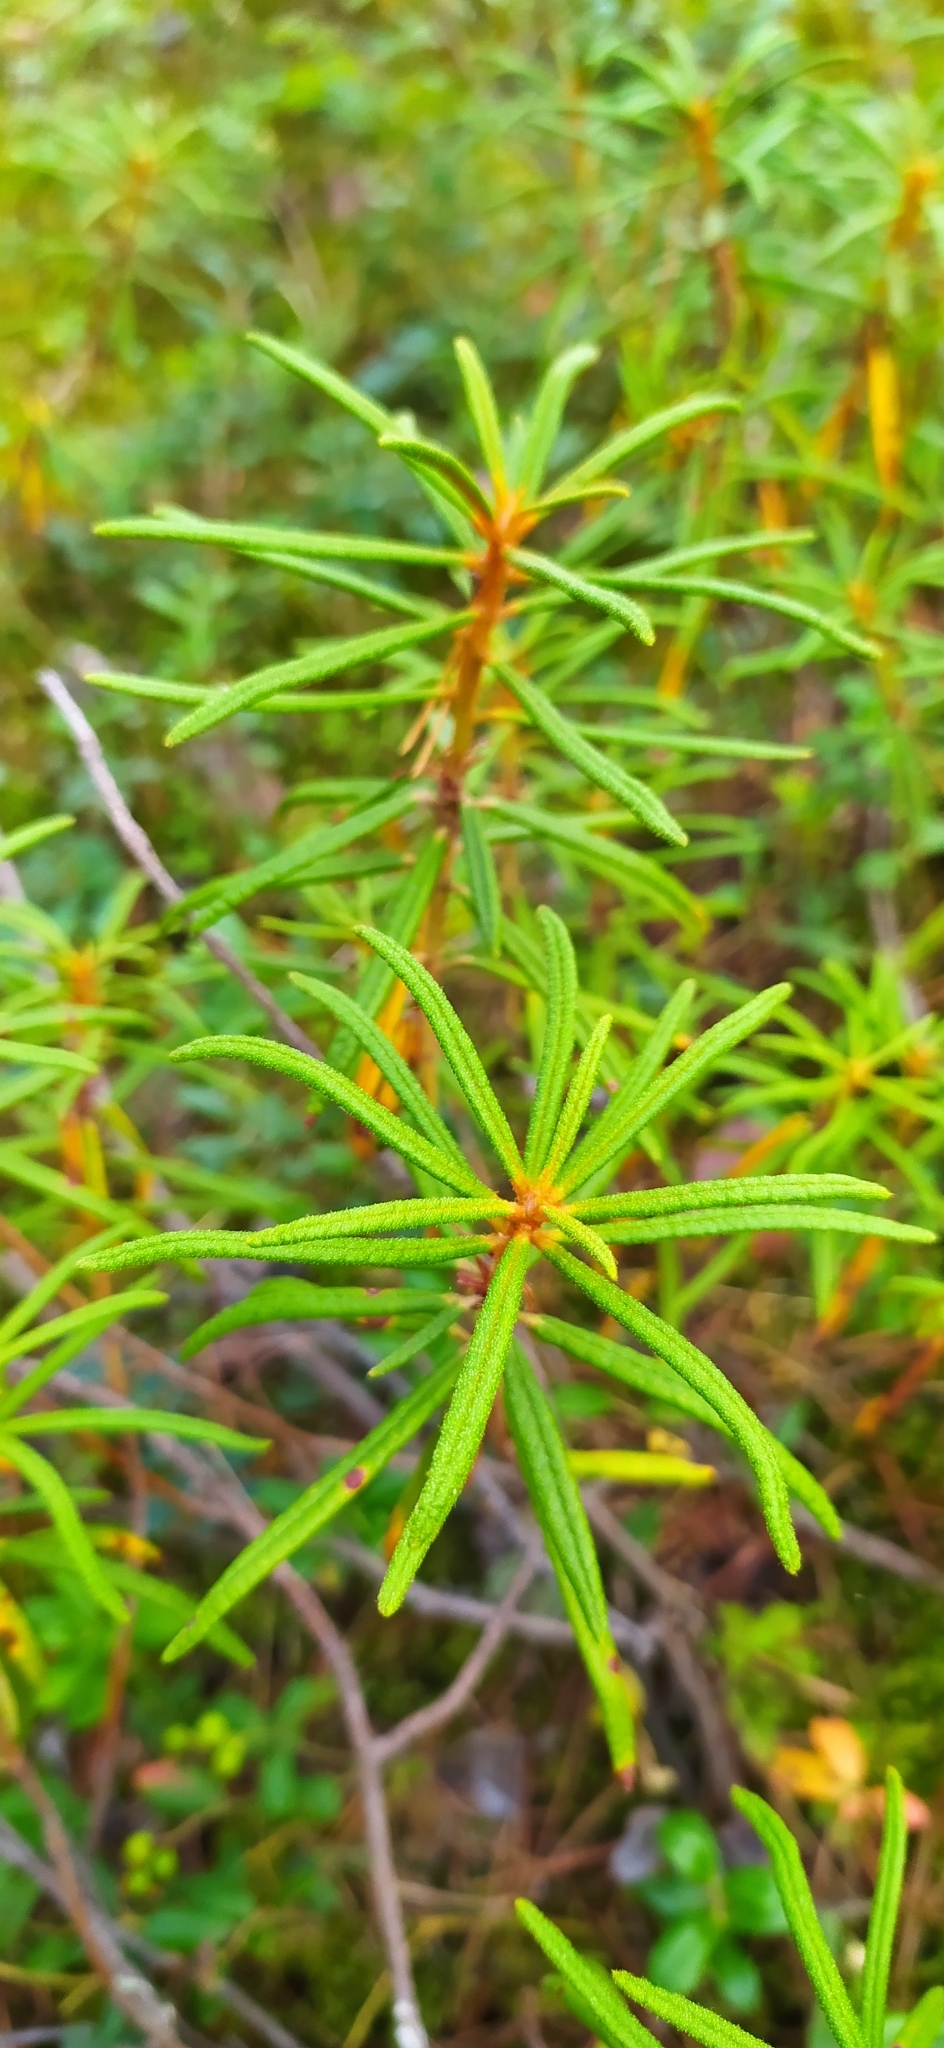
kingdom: Plantae
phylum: Tracheophyta
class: Magnoliopsida
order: Ericales
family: Ericaceae
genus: Rhododendron
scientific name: Rhododendron tomentosum
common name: Marsh labrador tea
